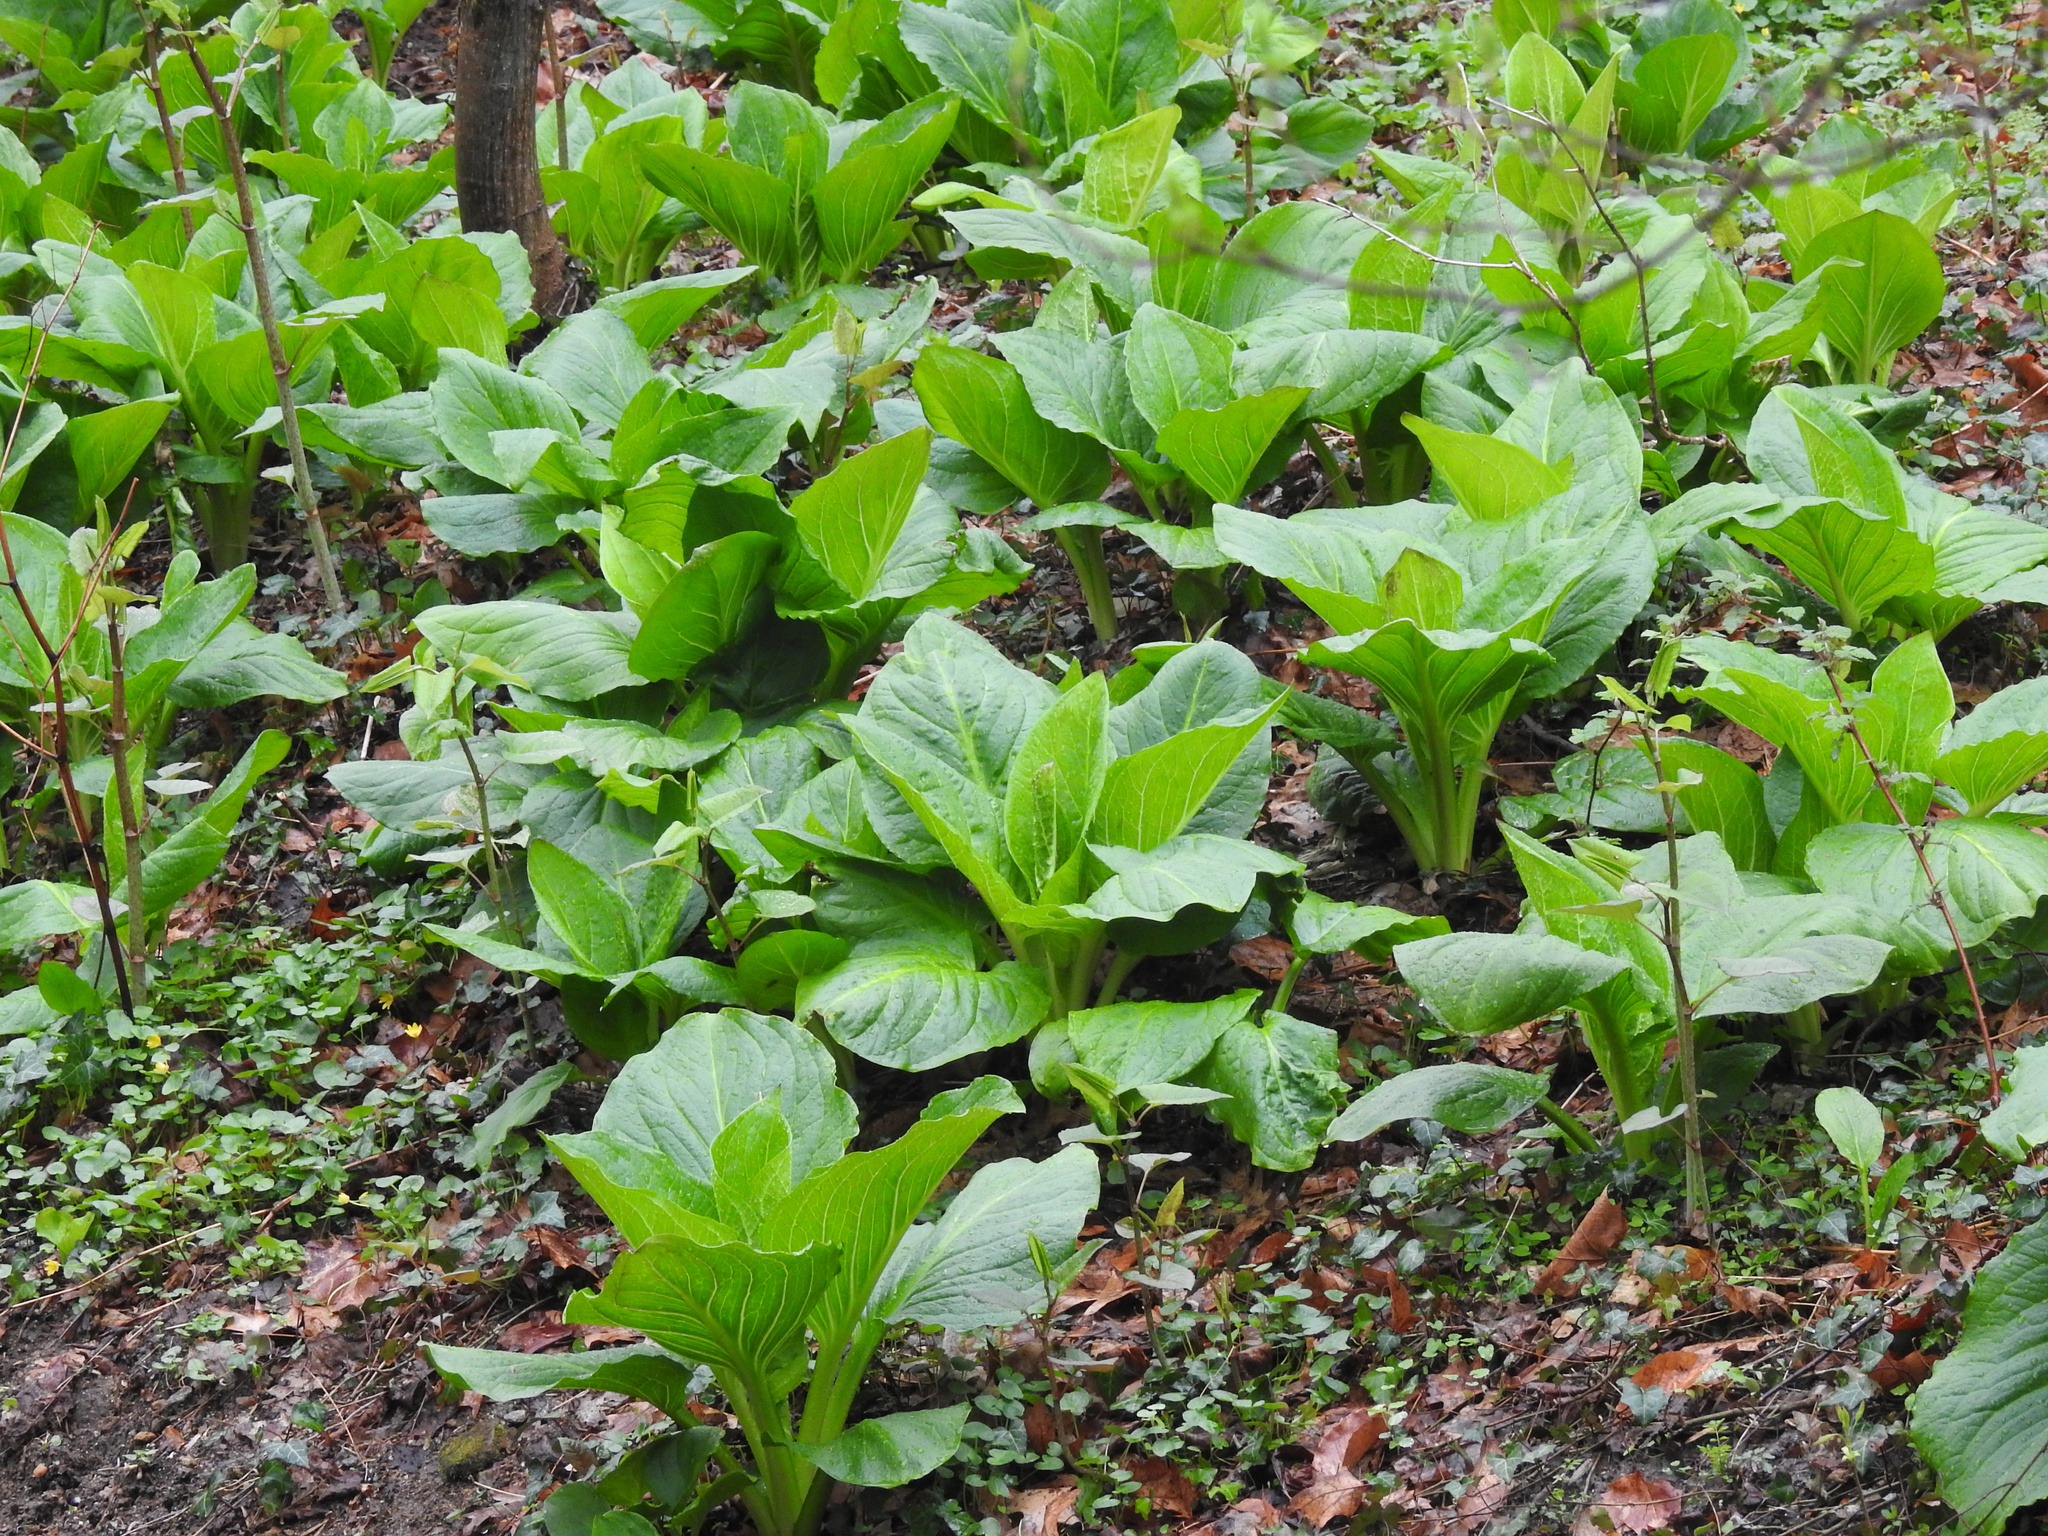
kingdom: Plantae
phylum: Tracheophyta
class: Liliopsida
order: Alismatales
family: Araceae
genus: Symplocarpus
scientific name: Symplocarpus foetidus
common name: Eastern skunk cabbage
